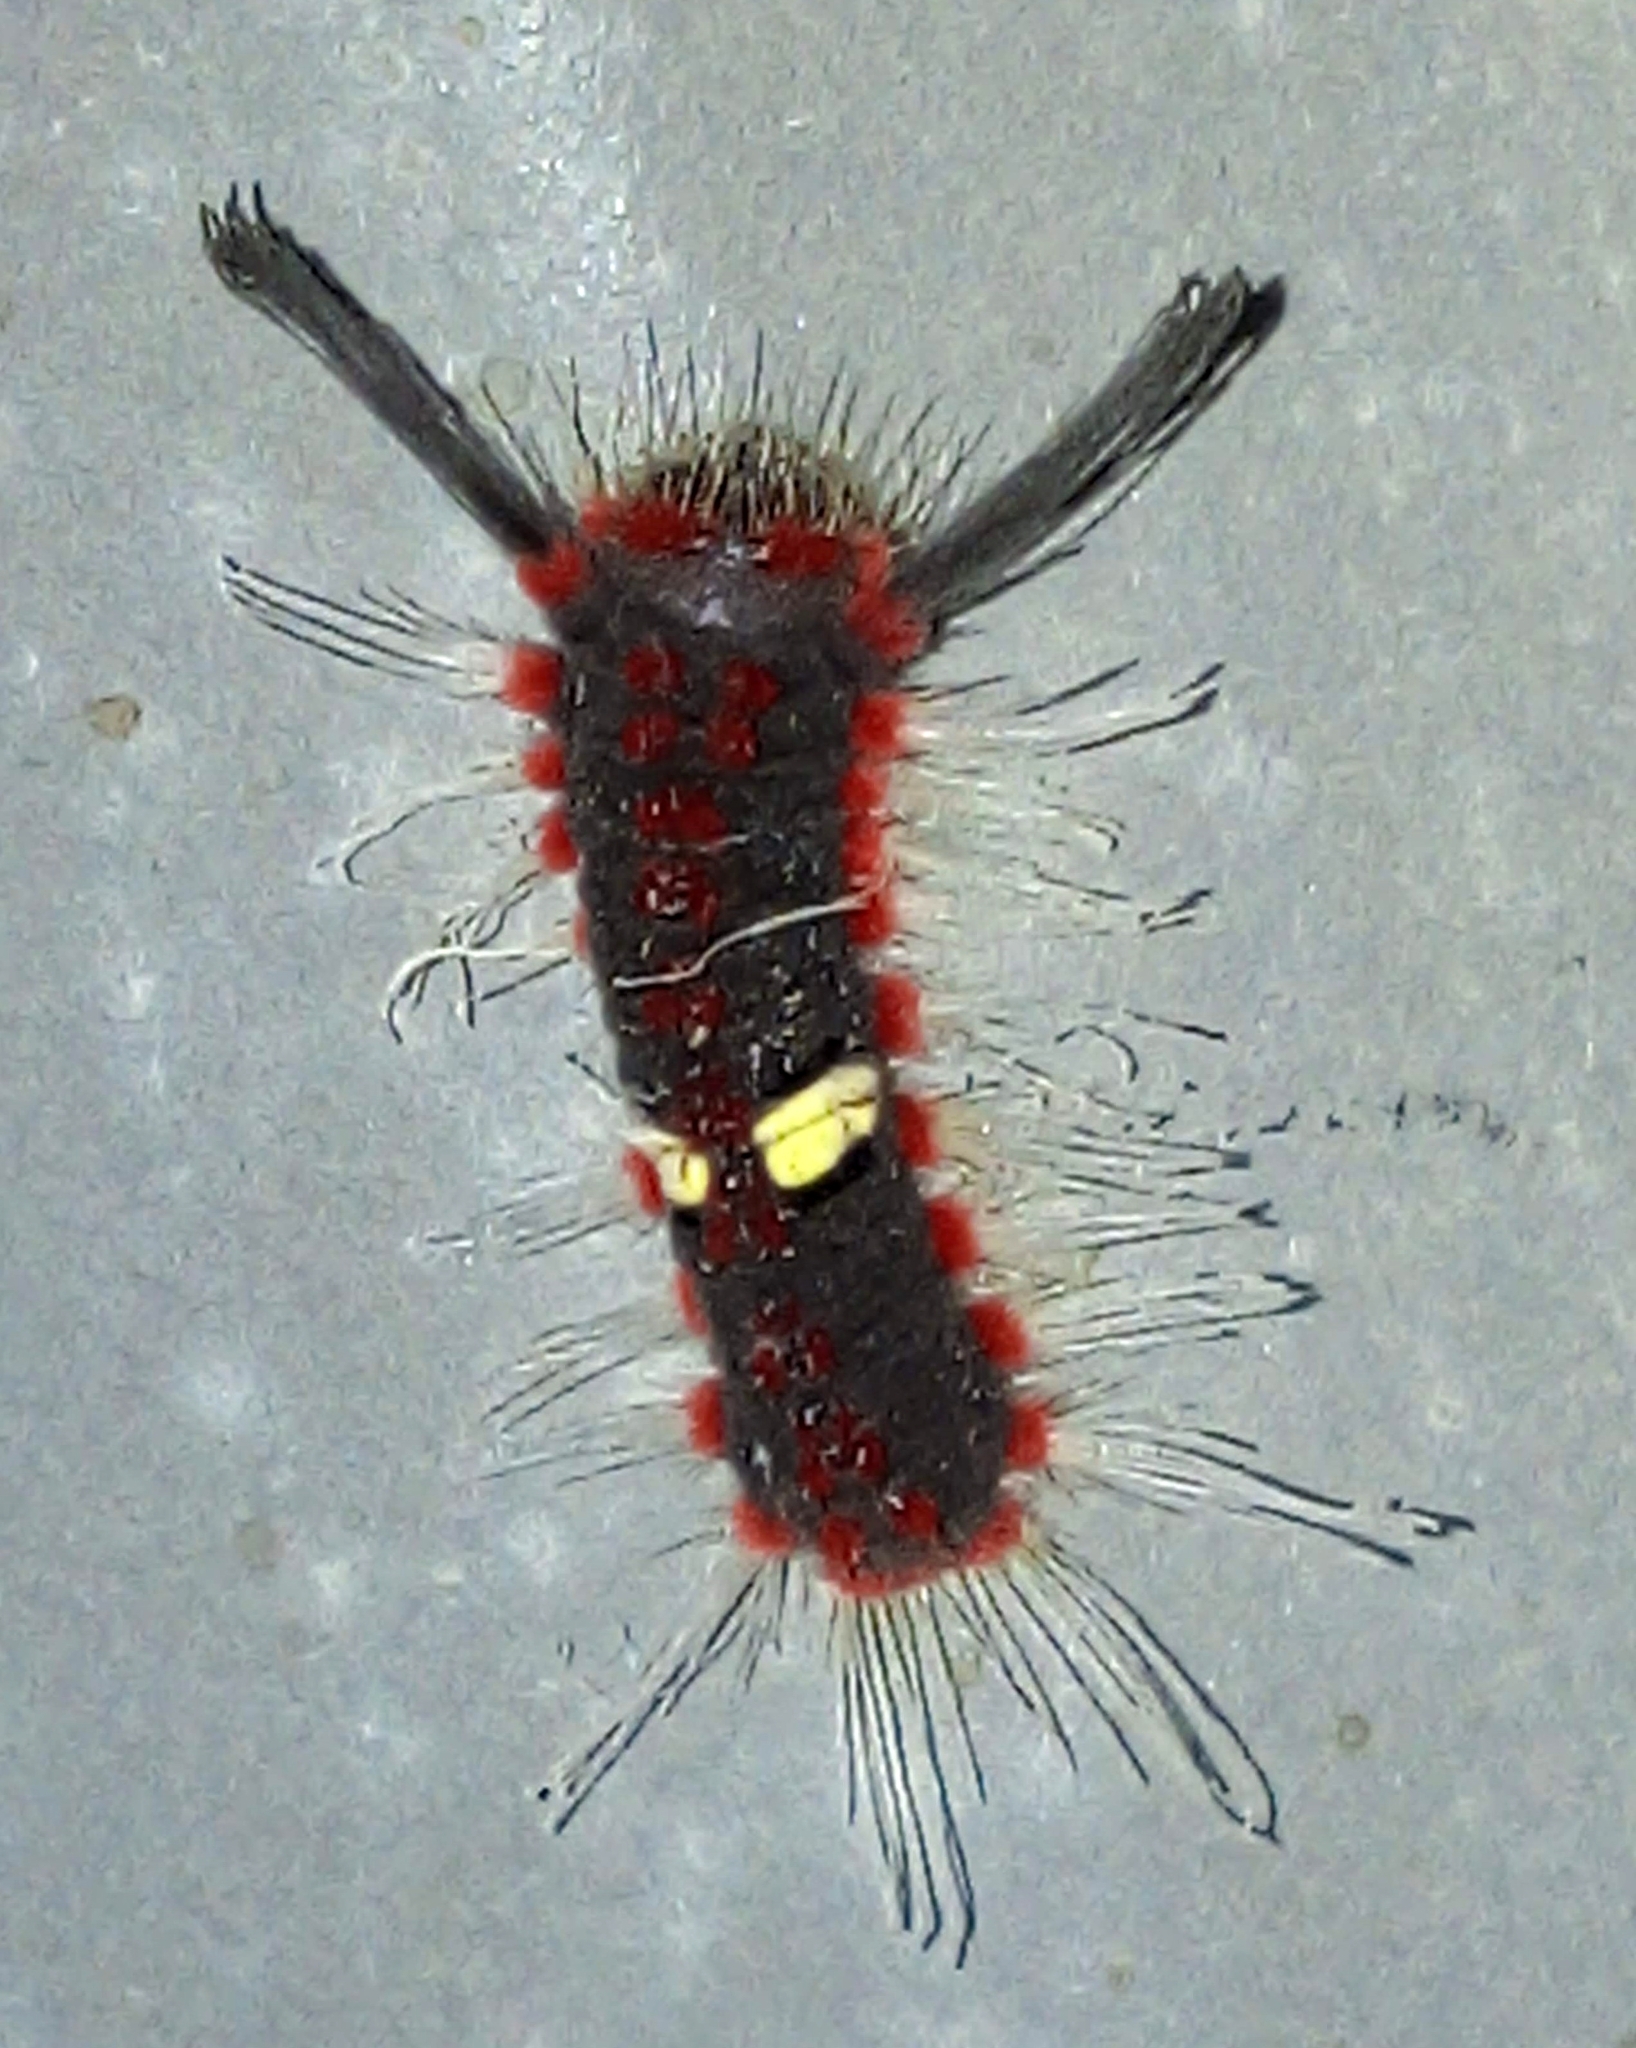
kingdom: Animalia
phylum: Arthropoda
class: Insecta
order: Lepidoptera
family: Riodinidae
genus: Rhetus
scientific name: Rhetus arcius
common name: Long-tailed metalmark
